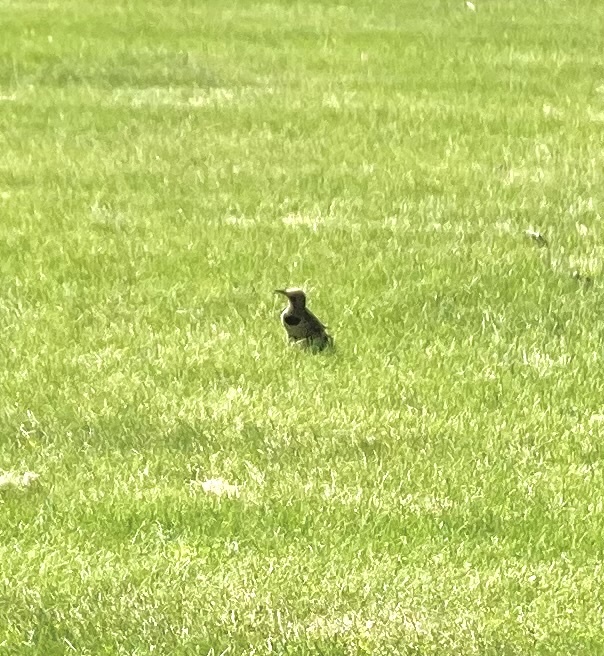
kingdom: Animalia
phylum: Chordata
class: Aves
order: Piciformes
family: Picidae
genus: Colaptes
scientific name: Colaptes auratus
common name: Northern flicker
